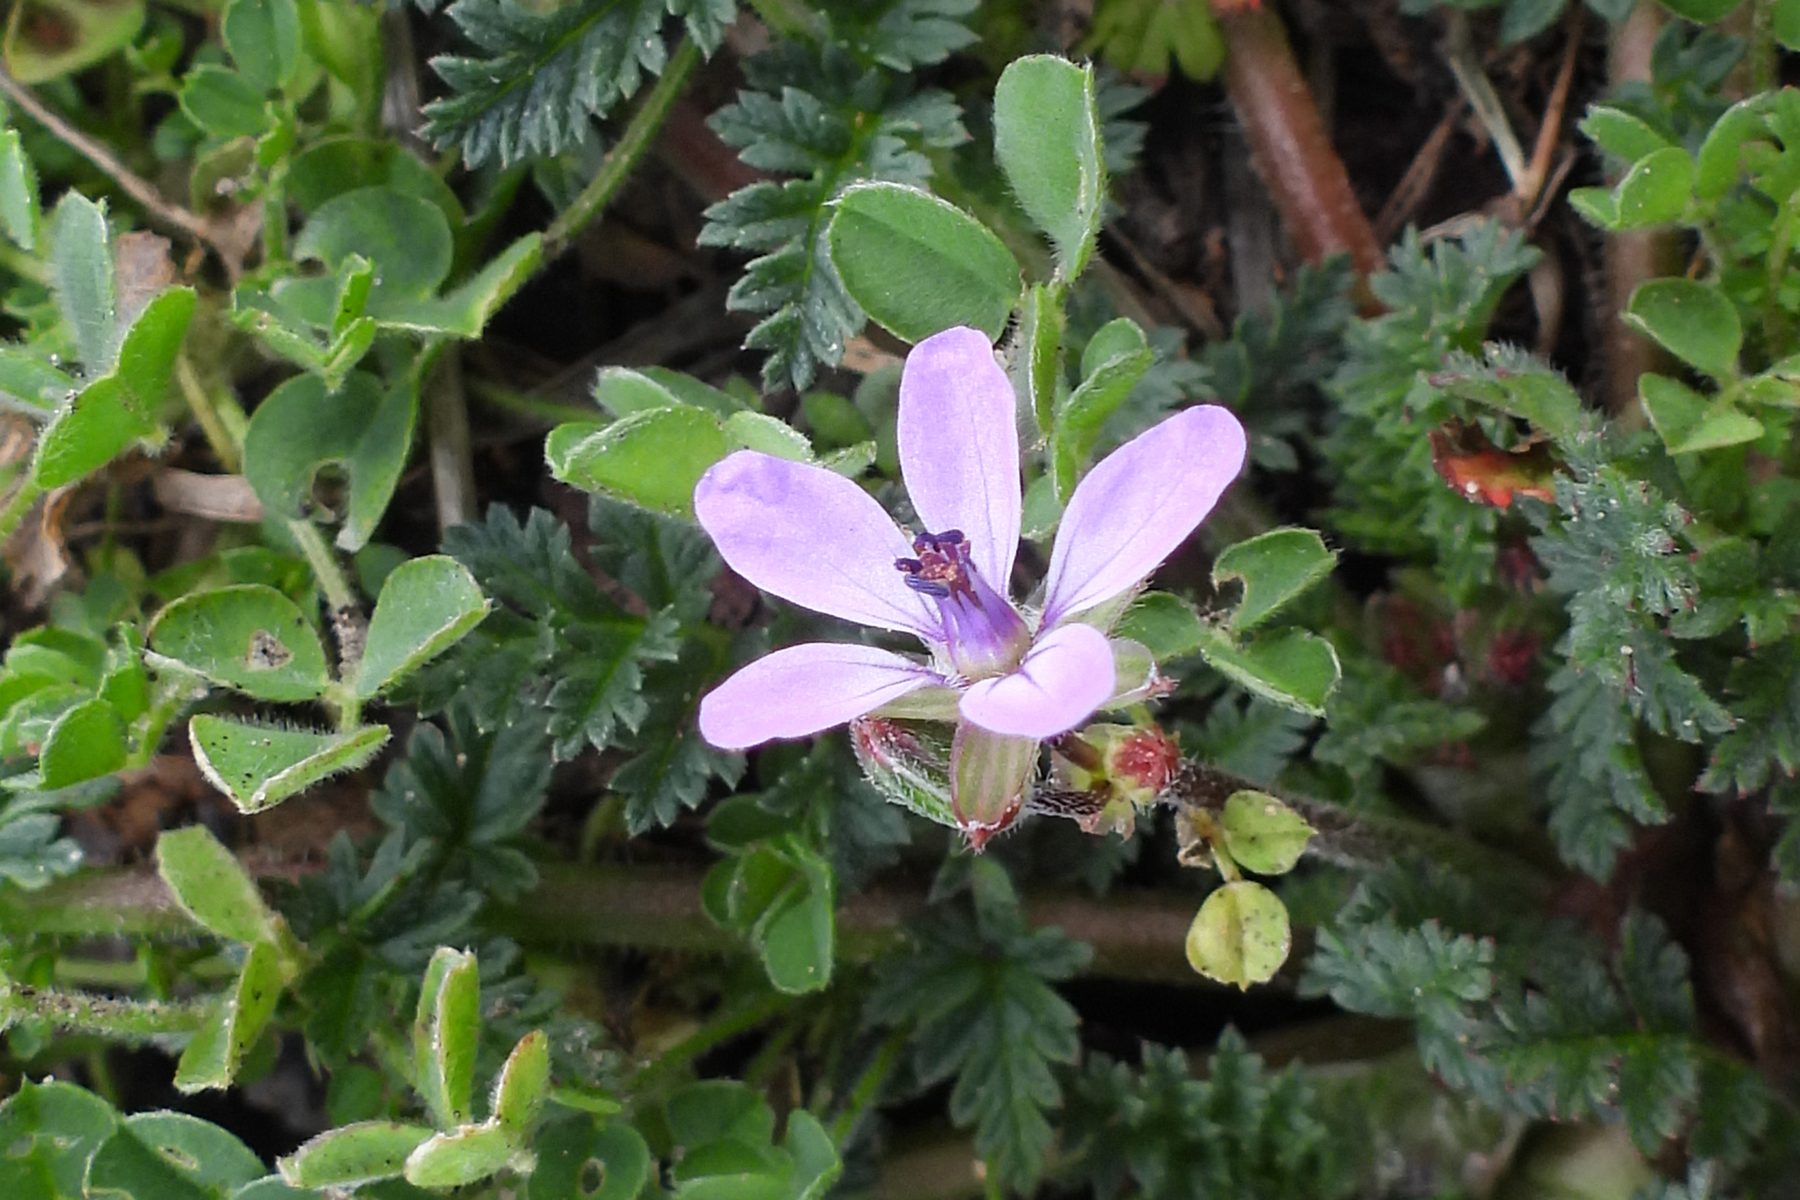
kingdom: Plantae
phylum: Tracheophyta
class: Magnoliopsida
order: Geraniales
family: Geraniaceae
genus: Erodium
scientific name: Erodium cicutarium
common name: Common stork's-bill
